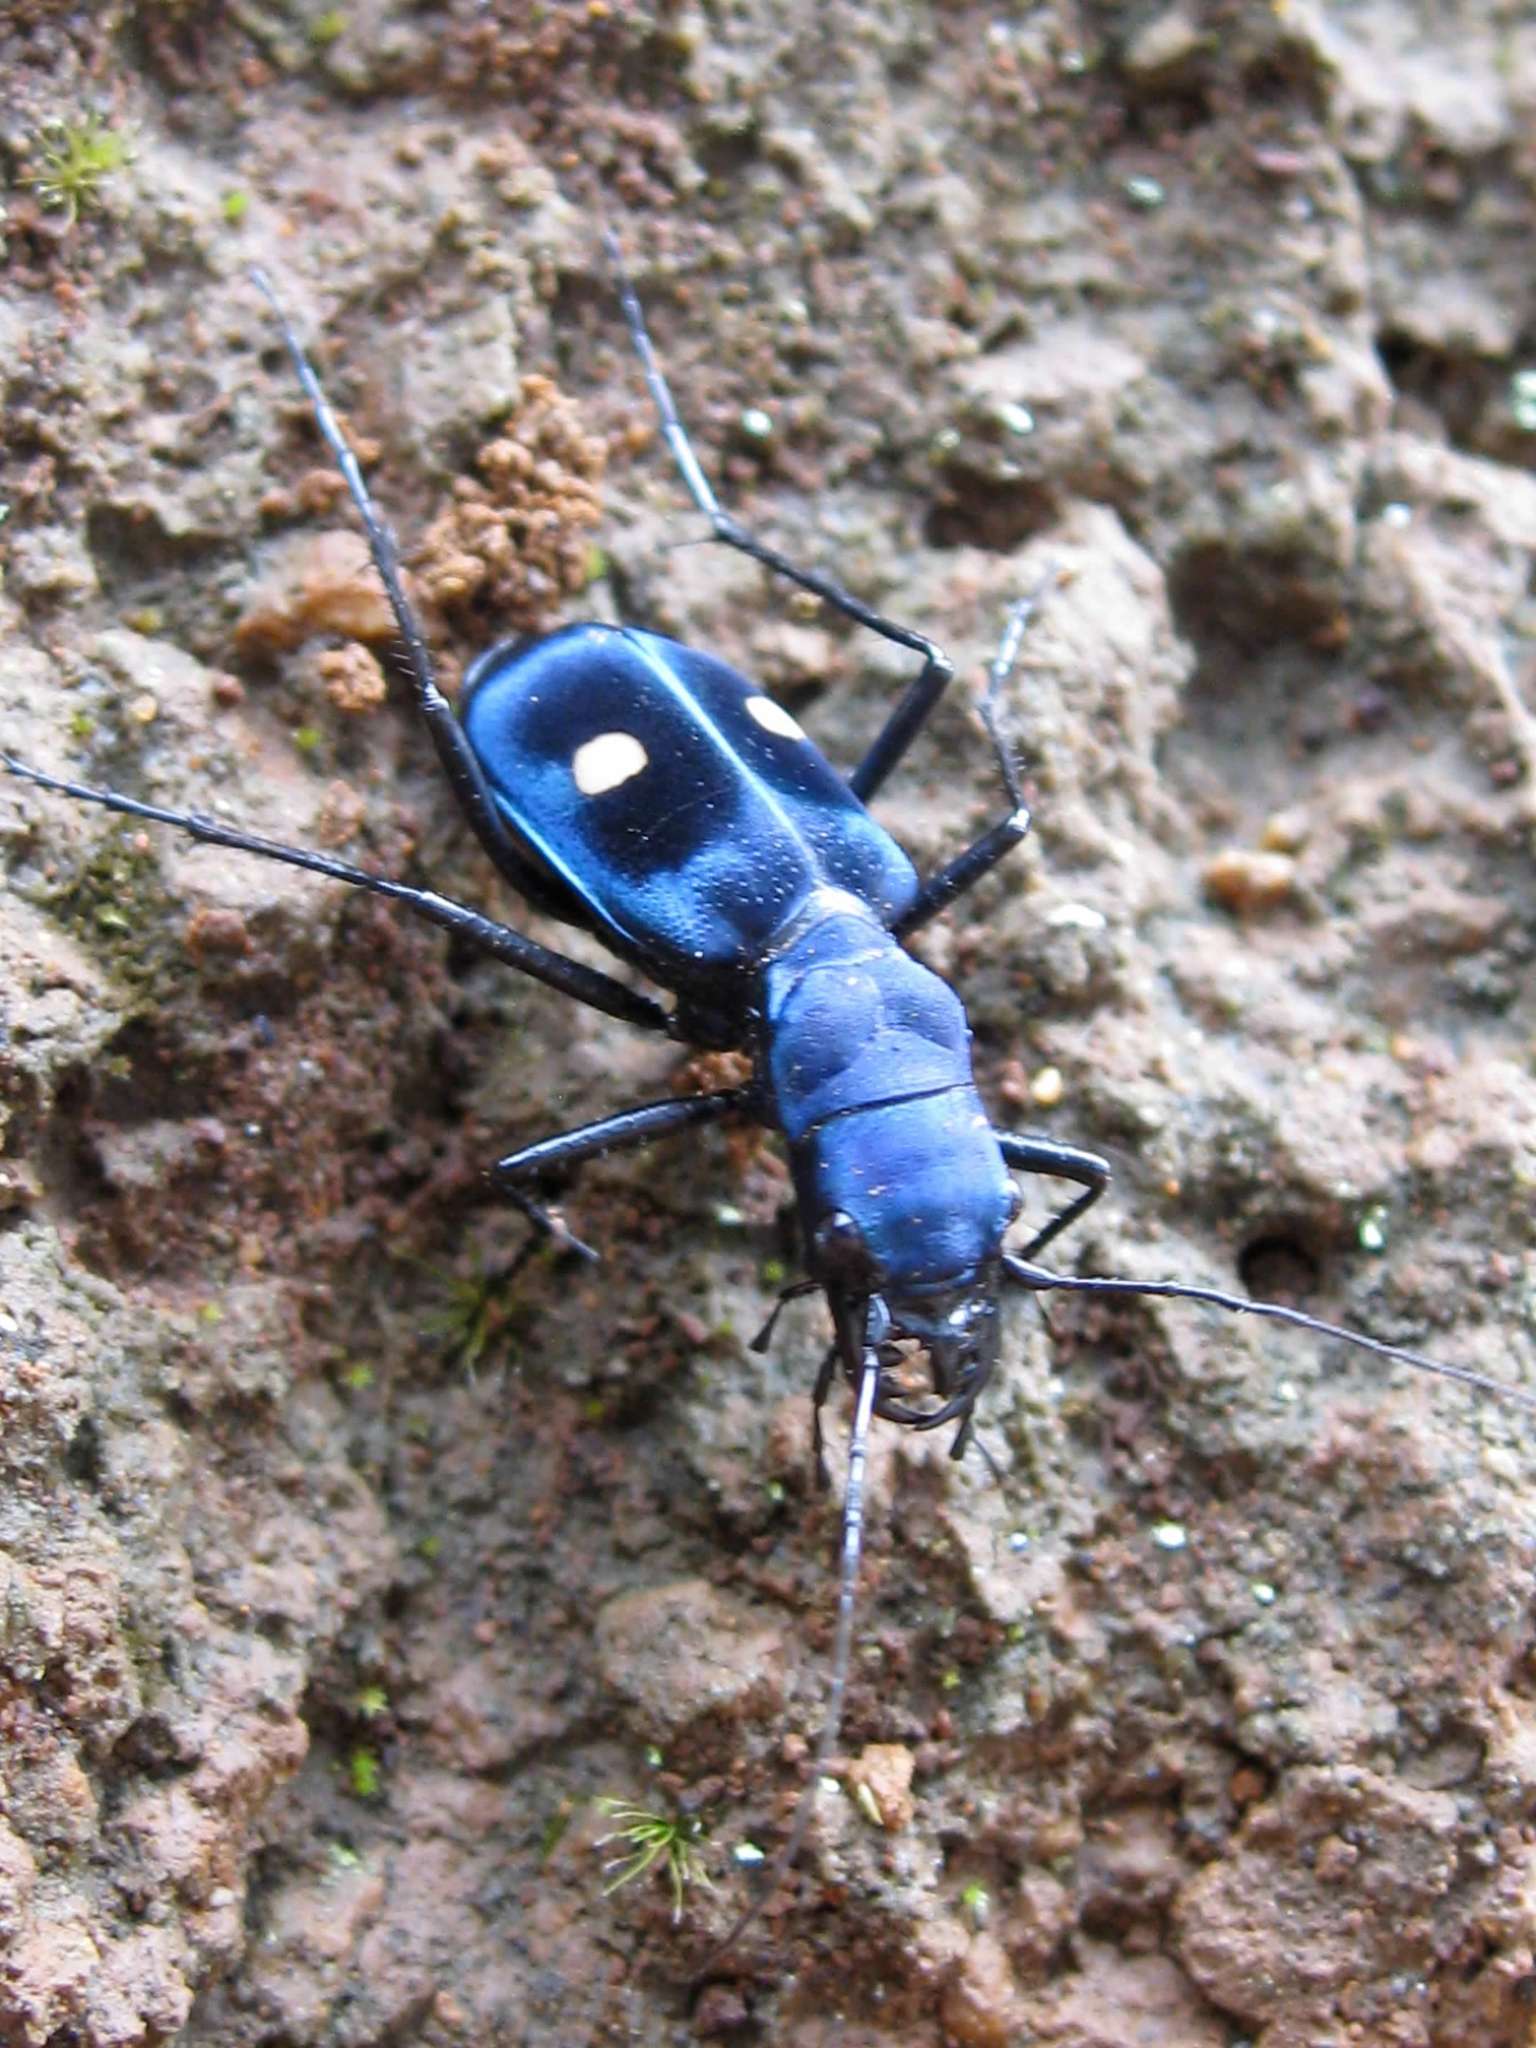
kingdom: Animalia
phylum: Arthropoda
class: Insecta
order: Coleoptera
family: Carabidae
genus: Pseudoxycheila
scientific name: Pseudoxycheila tarsalis
